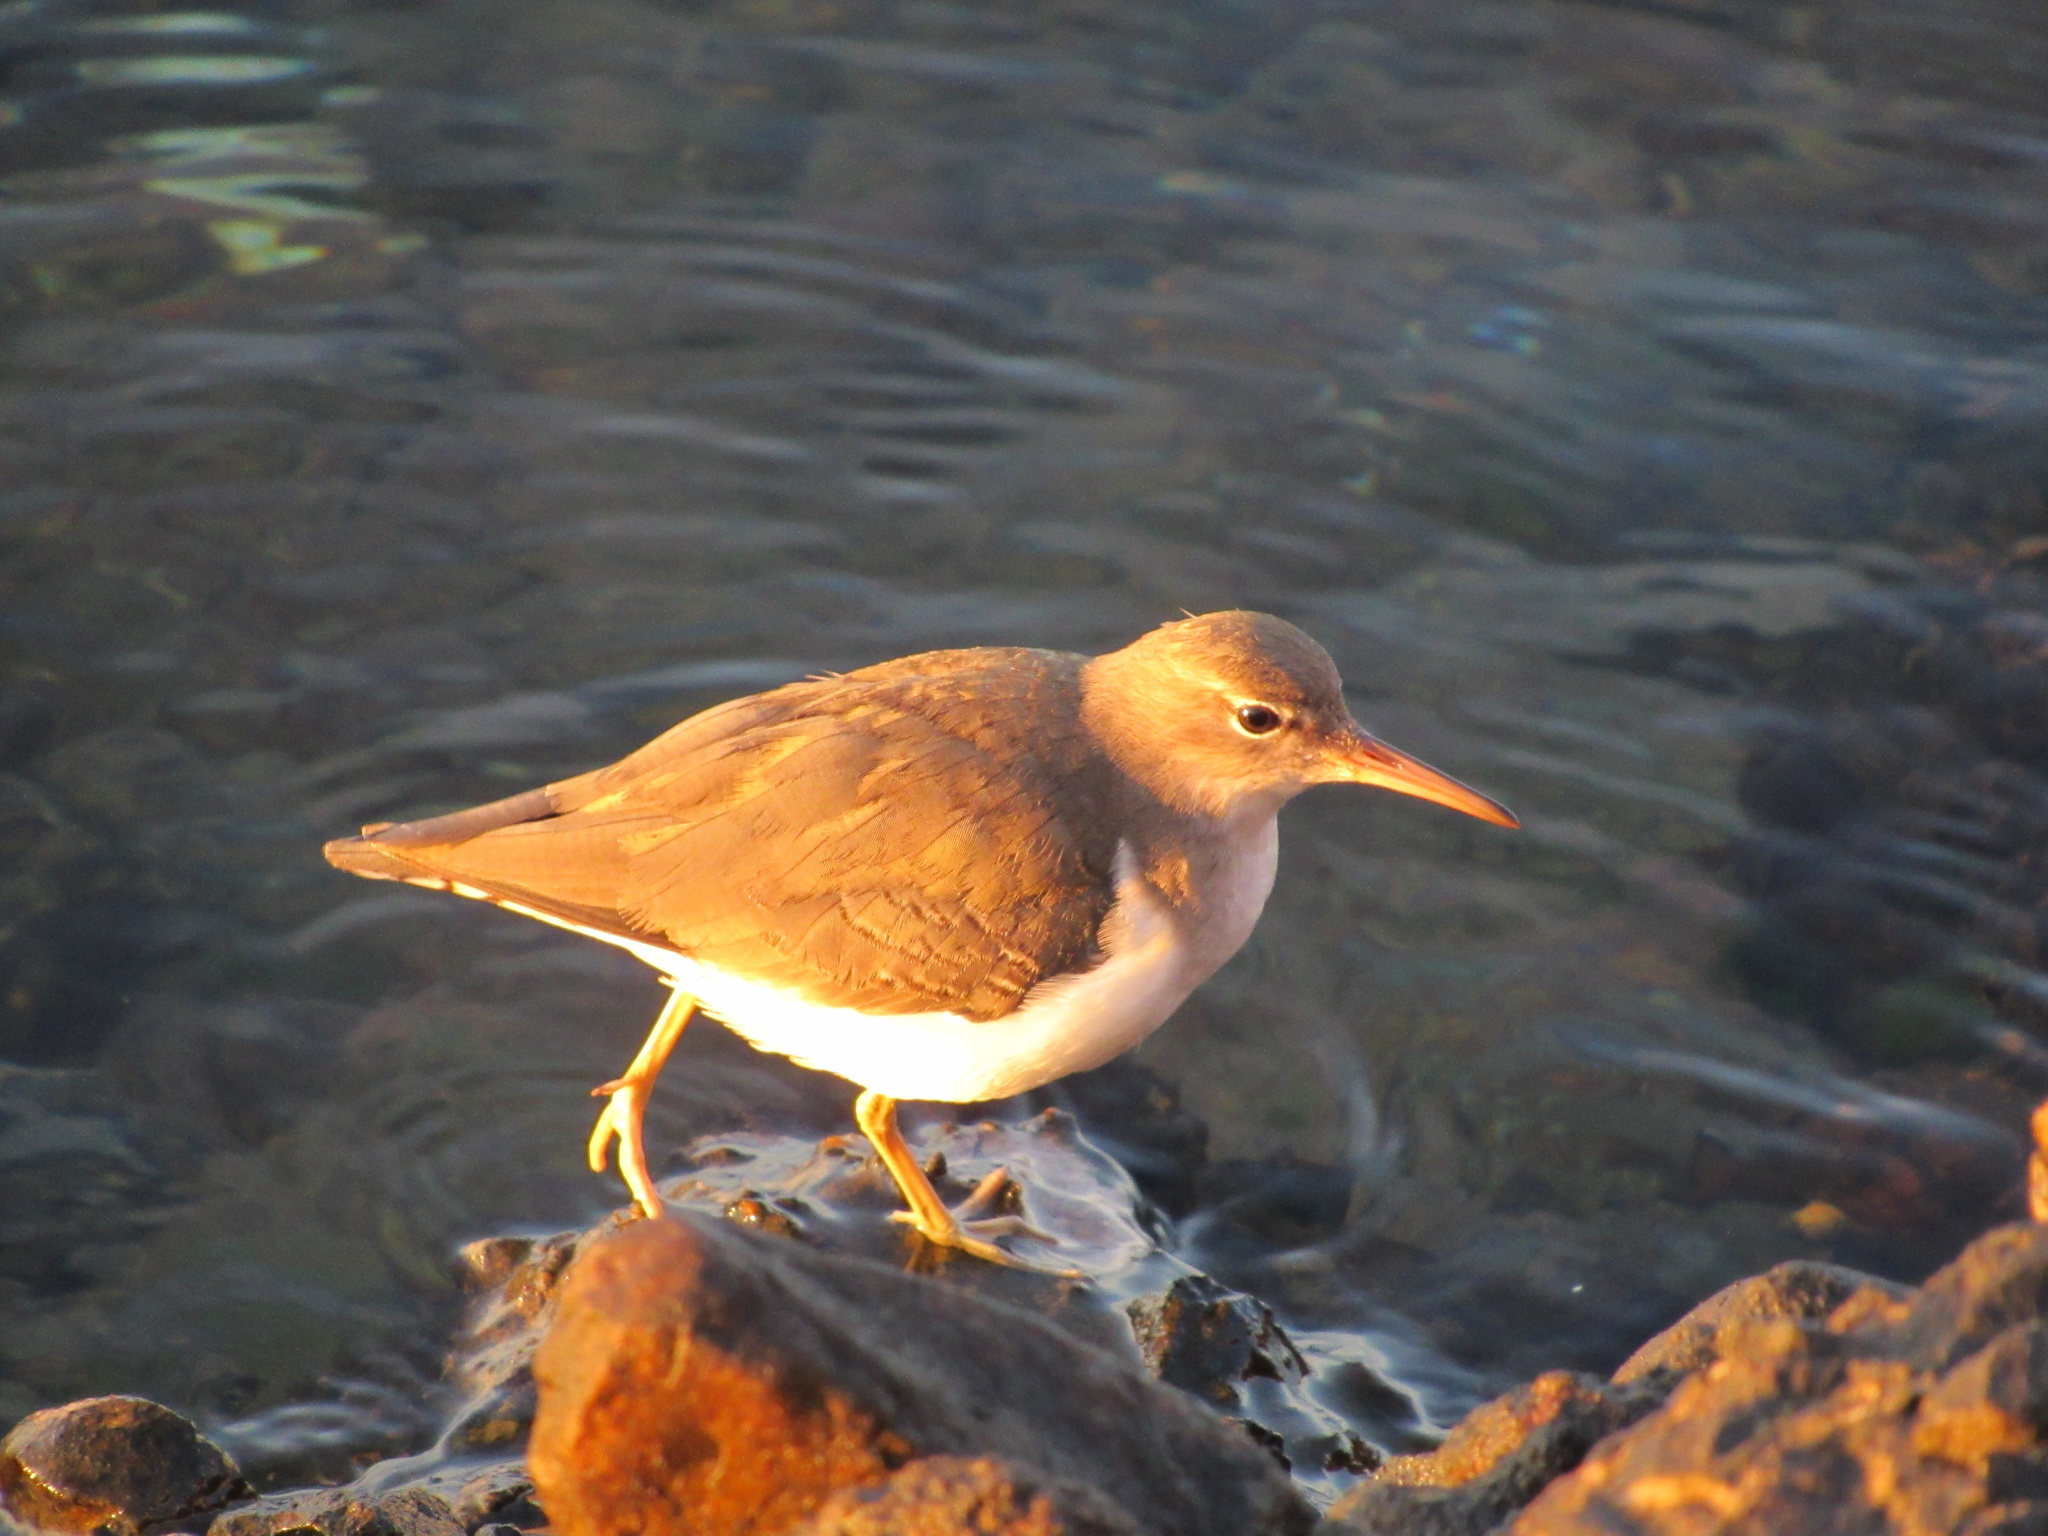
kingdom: Animalia
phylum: Chordata
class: Aves
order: Charadriiformes
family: Scolopacidae
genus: Actitis
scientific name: Actitis macularius
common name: Spotted sandpiper
